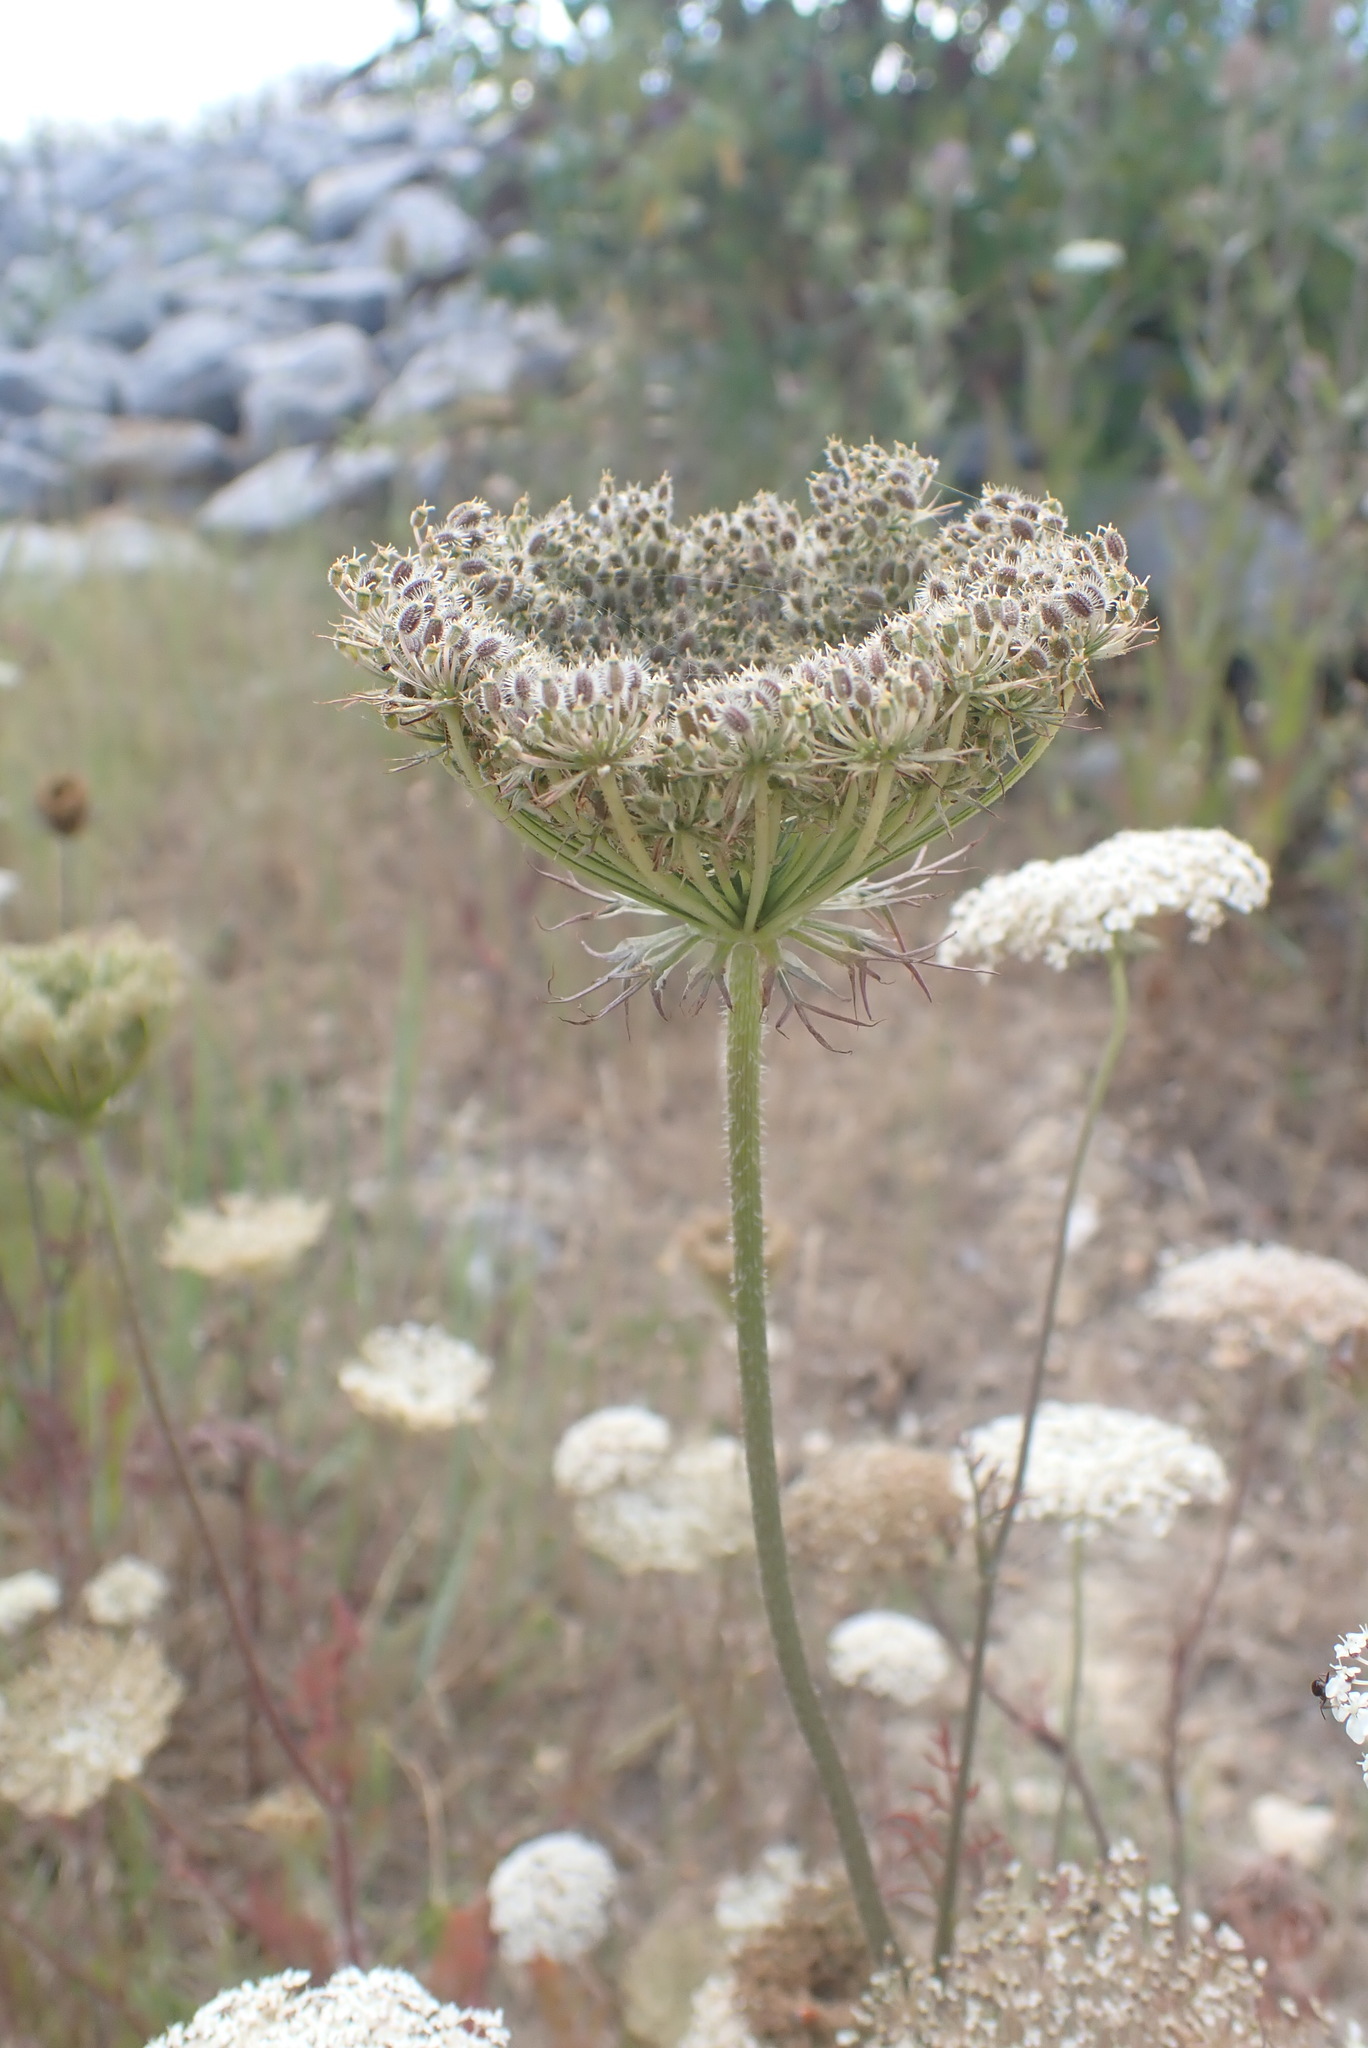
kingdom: Plantae
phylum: Tracheophyta
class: Magnoliopsida
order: Apiales
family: Apiaceae
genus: Daucus
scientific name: Daucus carota
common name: Wild carrot
